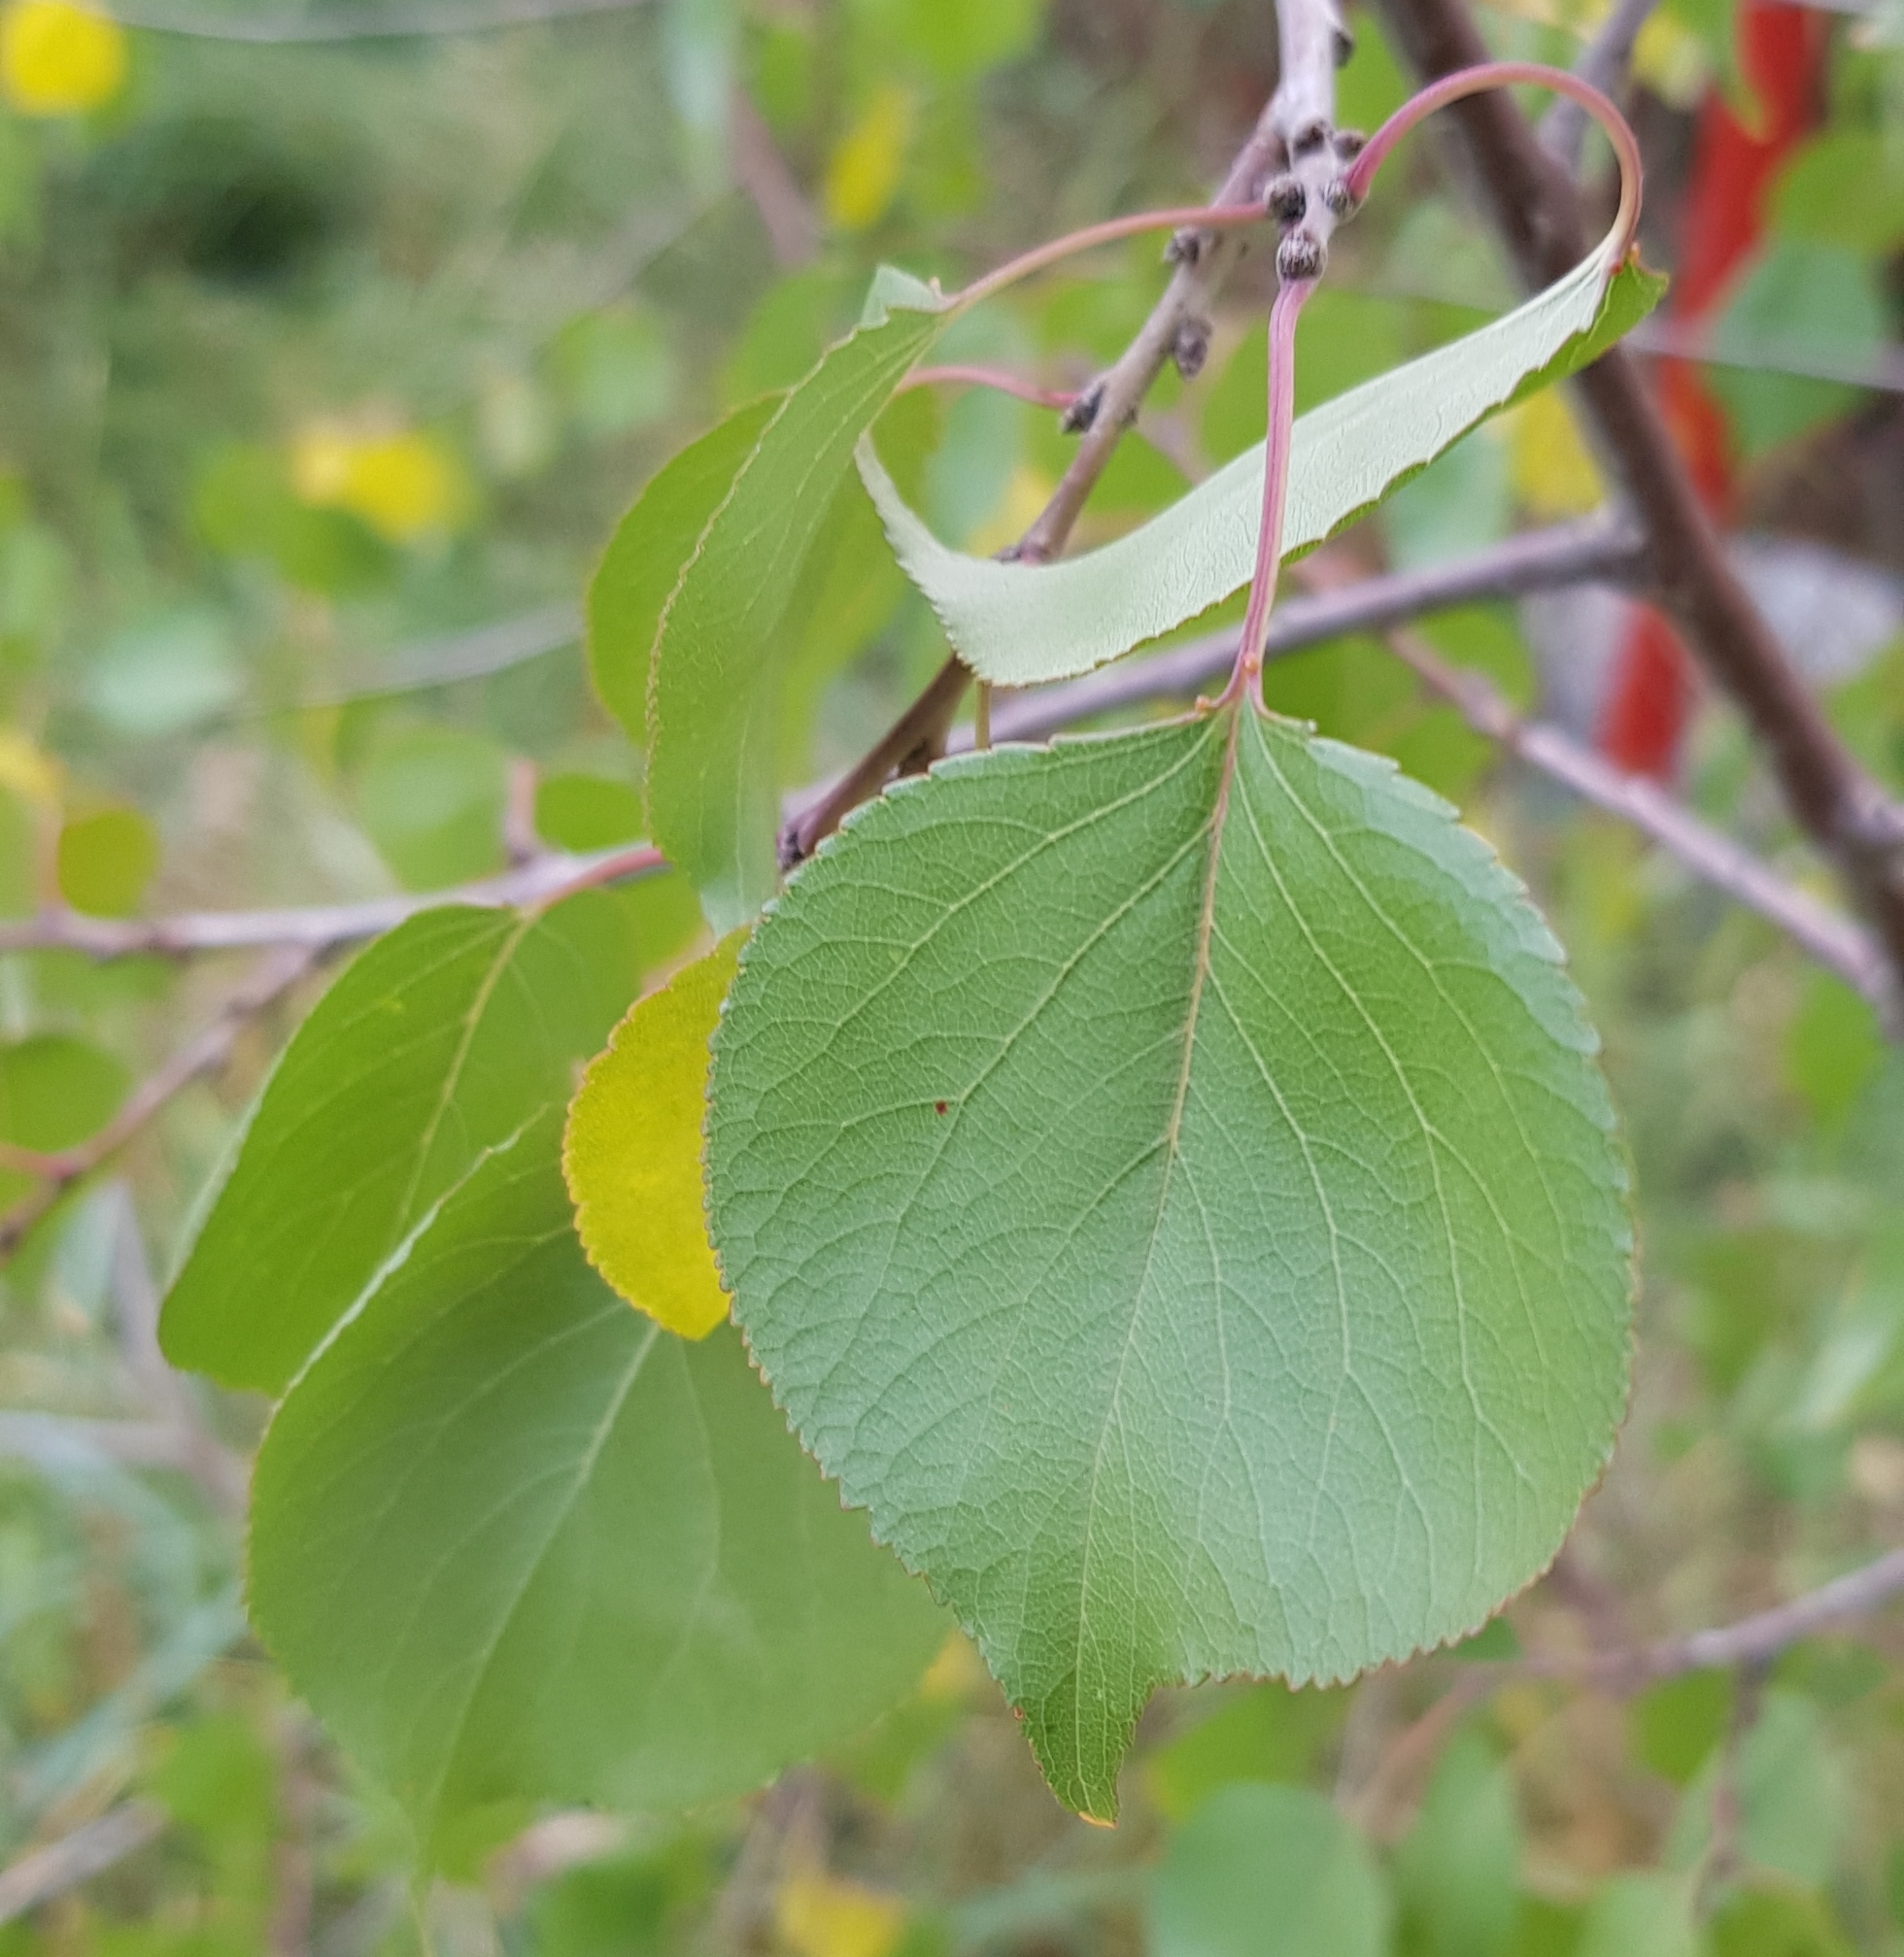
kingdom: Plantae
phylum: Tracheophyta
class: Magnoliopsida
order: Rosales
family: Rosaceae
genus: Prunus
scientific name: Prunus sibirica
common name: Siberian apricot
